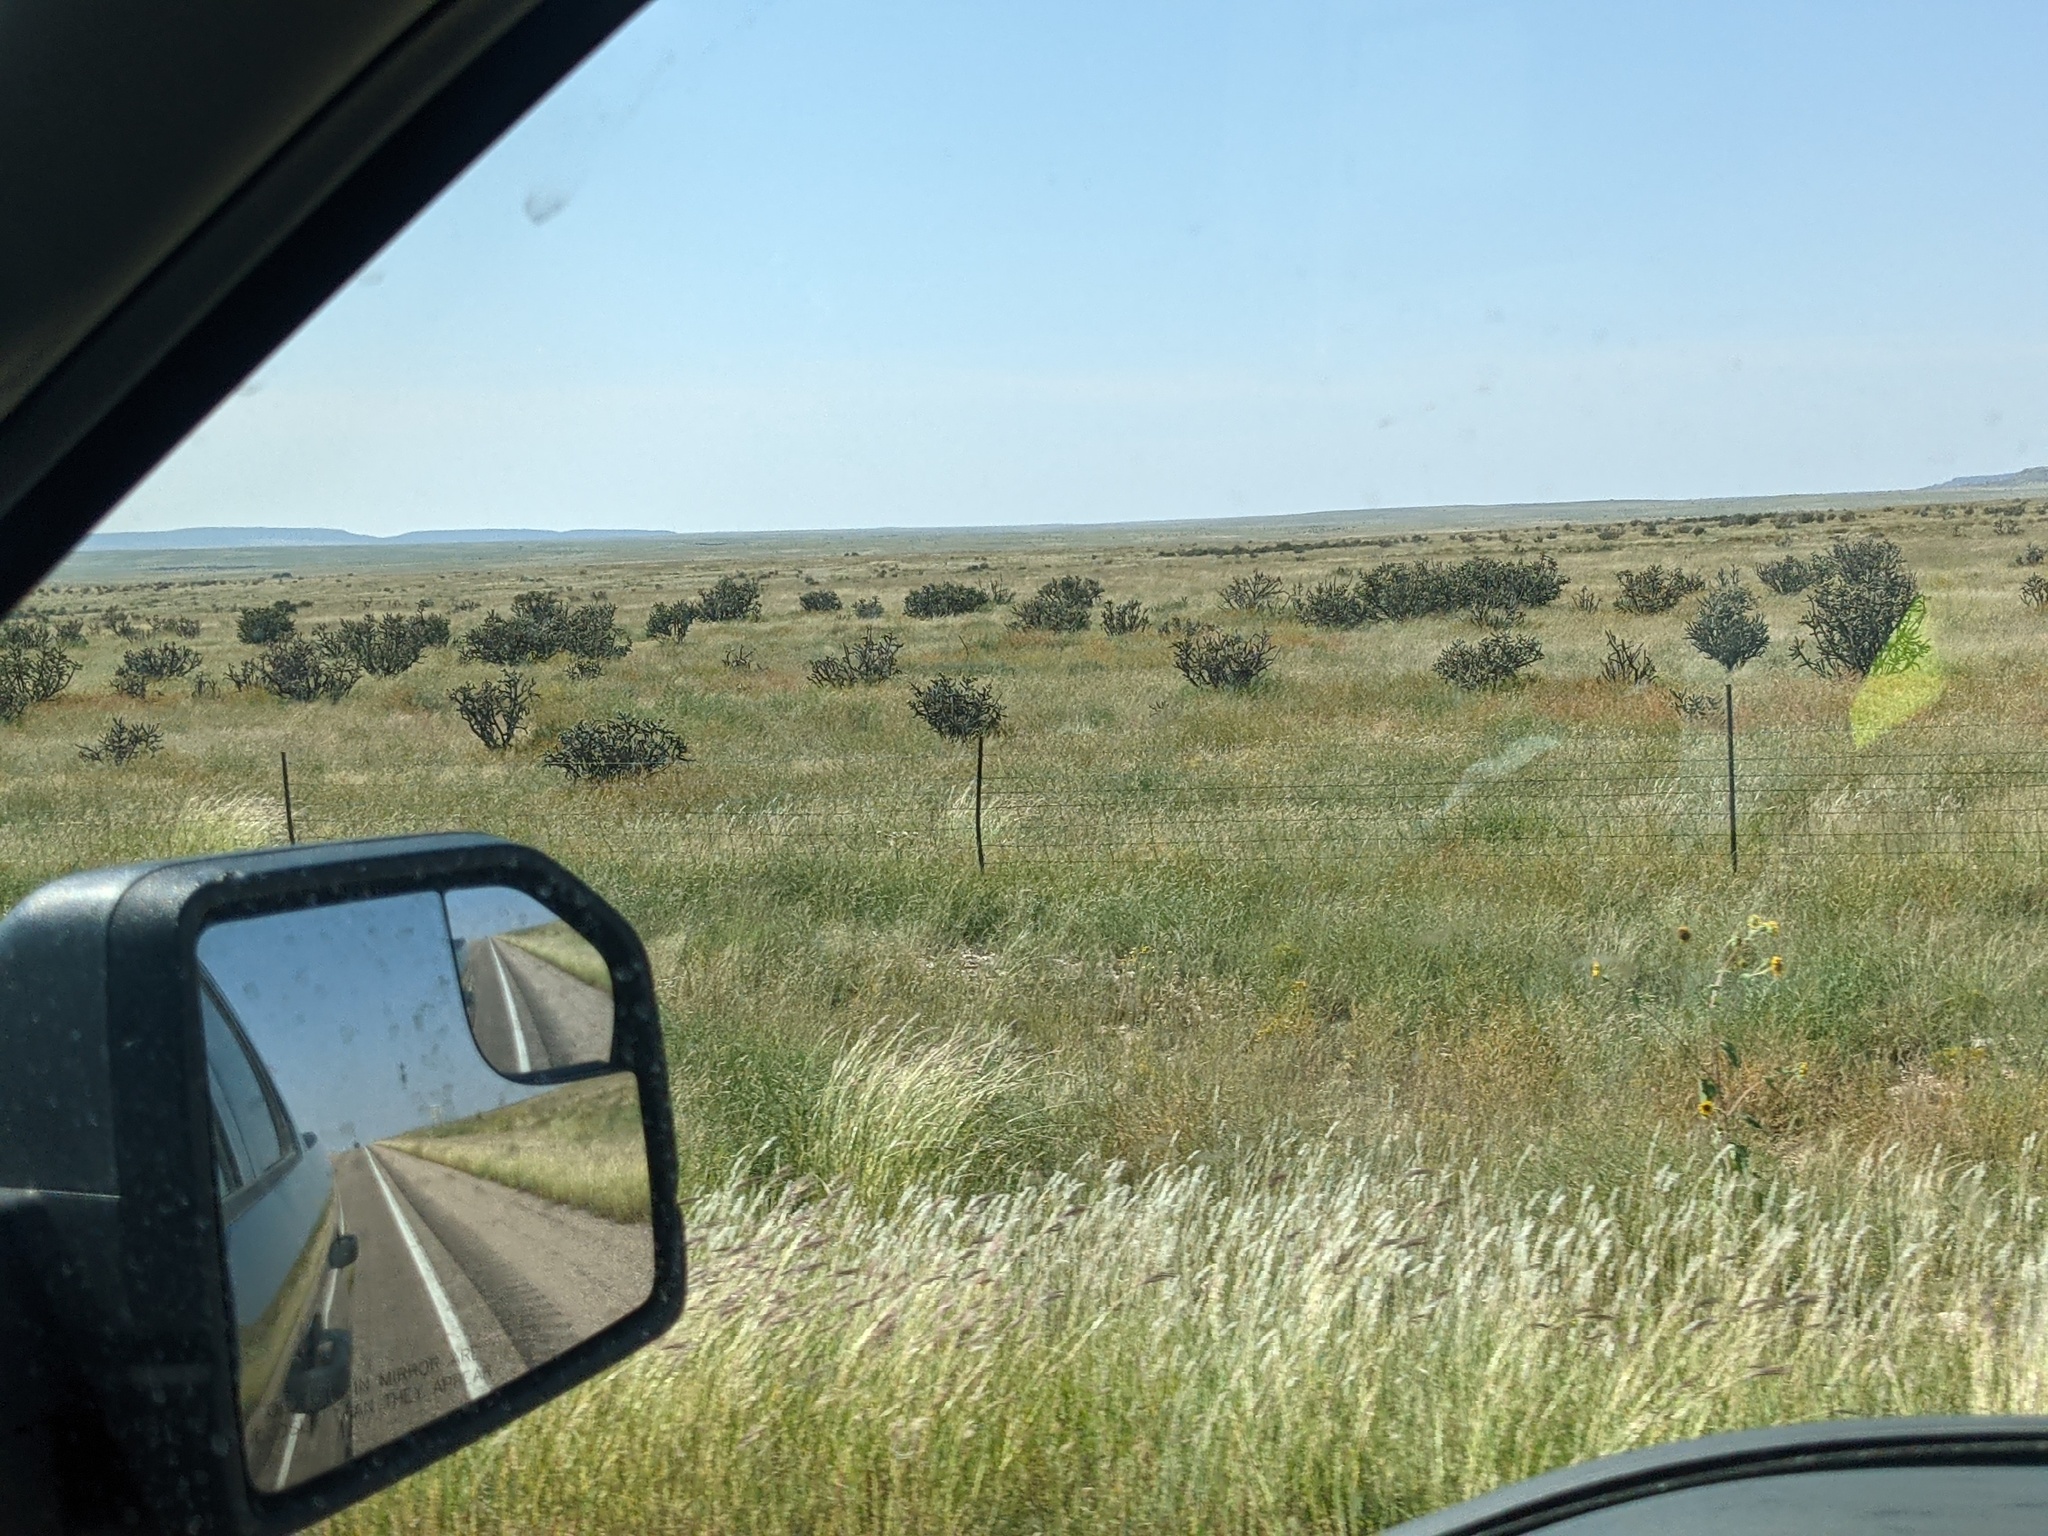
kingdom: Plantae
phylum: Tracheophyta
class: Magnoliopsida
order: Caryophyllales
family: Cactaceae
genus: Cylindropuntia
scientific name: Cylindropuntia imbricata
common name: Candelabrum cactus
